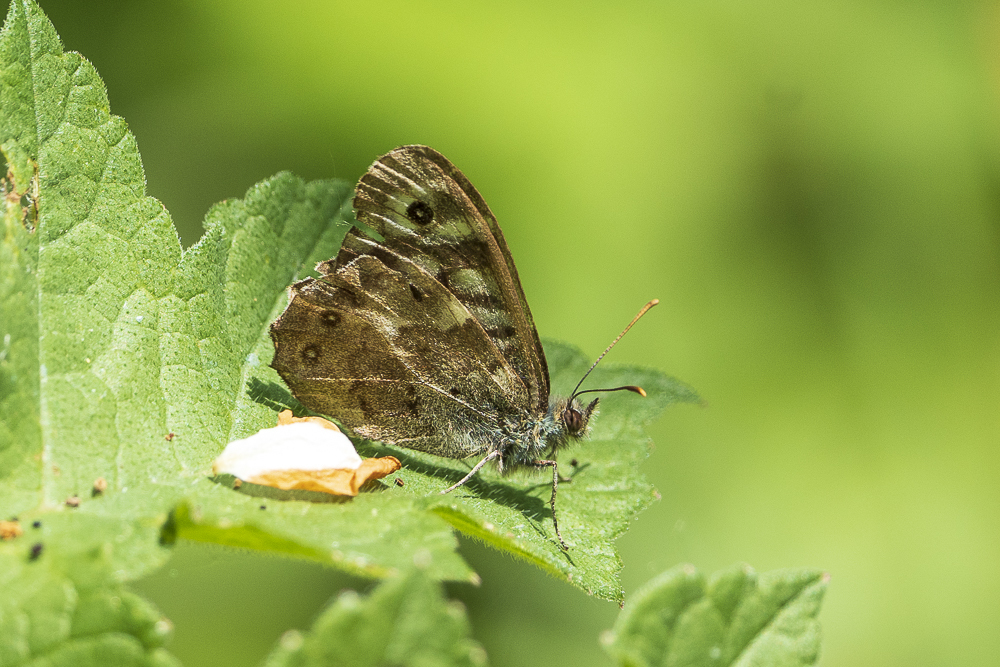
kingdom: Animalia
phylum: Arthropoda
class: Insecta
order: Lepidoptera
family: Nymphalidae
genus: Pararge
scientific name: Pararge aegeria
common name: Speckled wood
